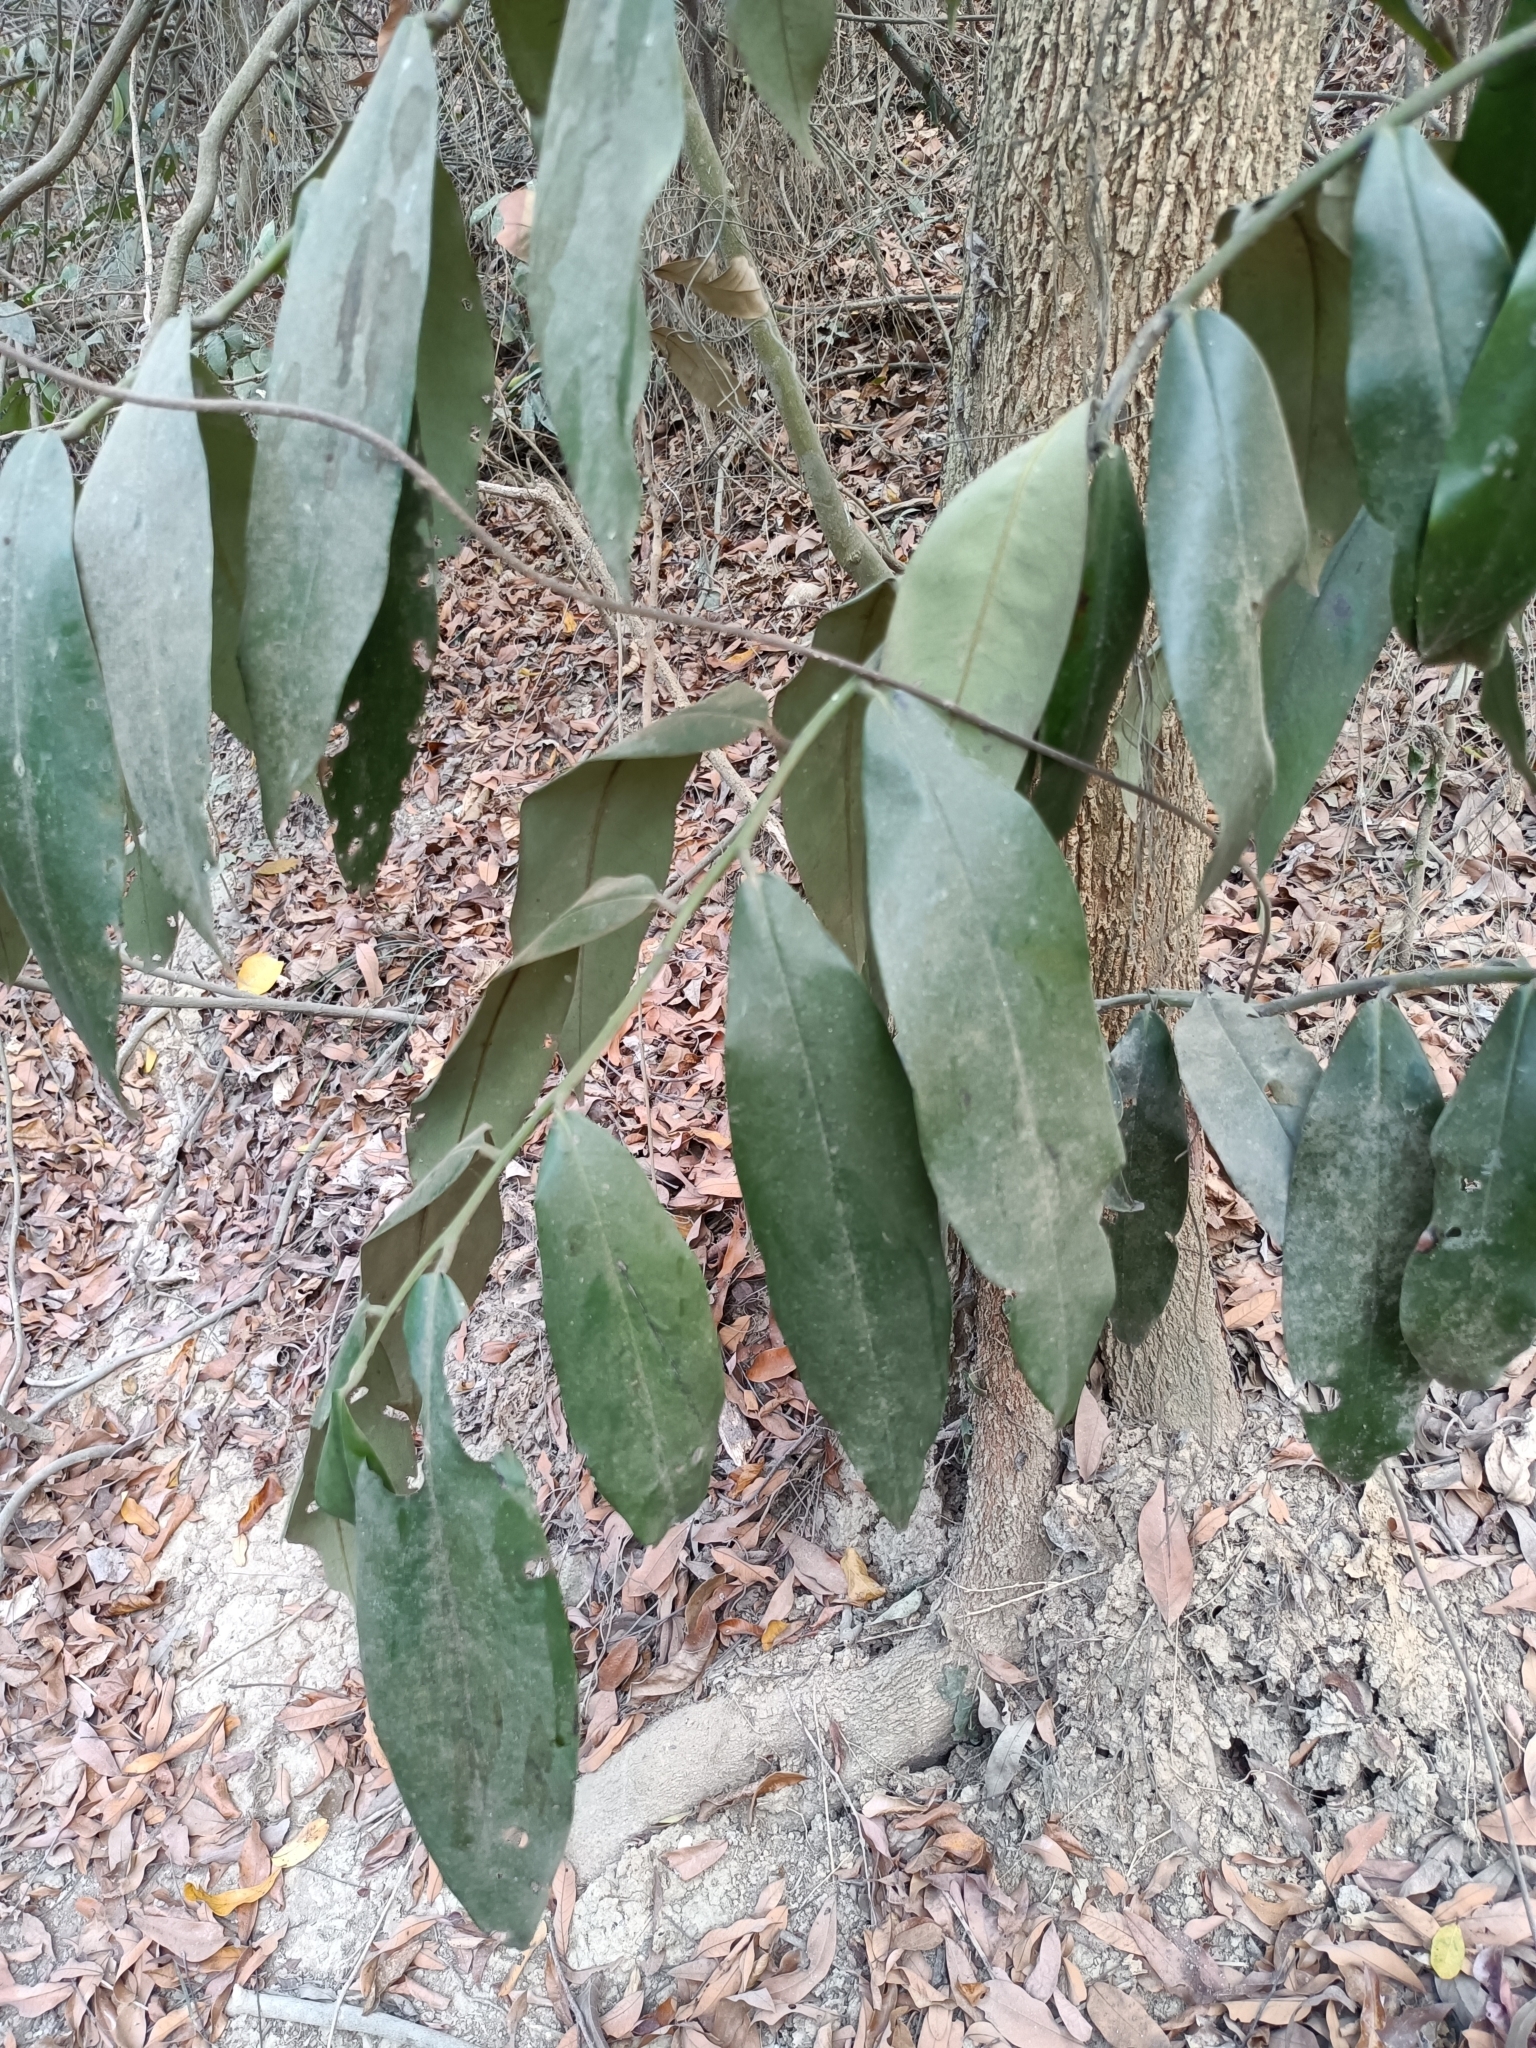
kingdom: Plantae
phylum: Tracheophyta
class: Magnoliopsida
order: Ericales
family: Ebenaceae
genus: Diospyros
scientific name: Diospyros blancoi
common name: Mabola-tree
